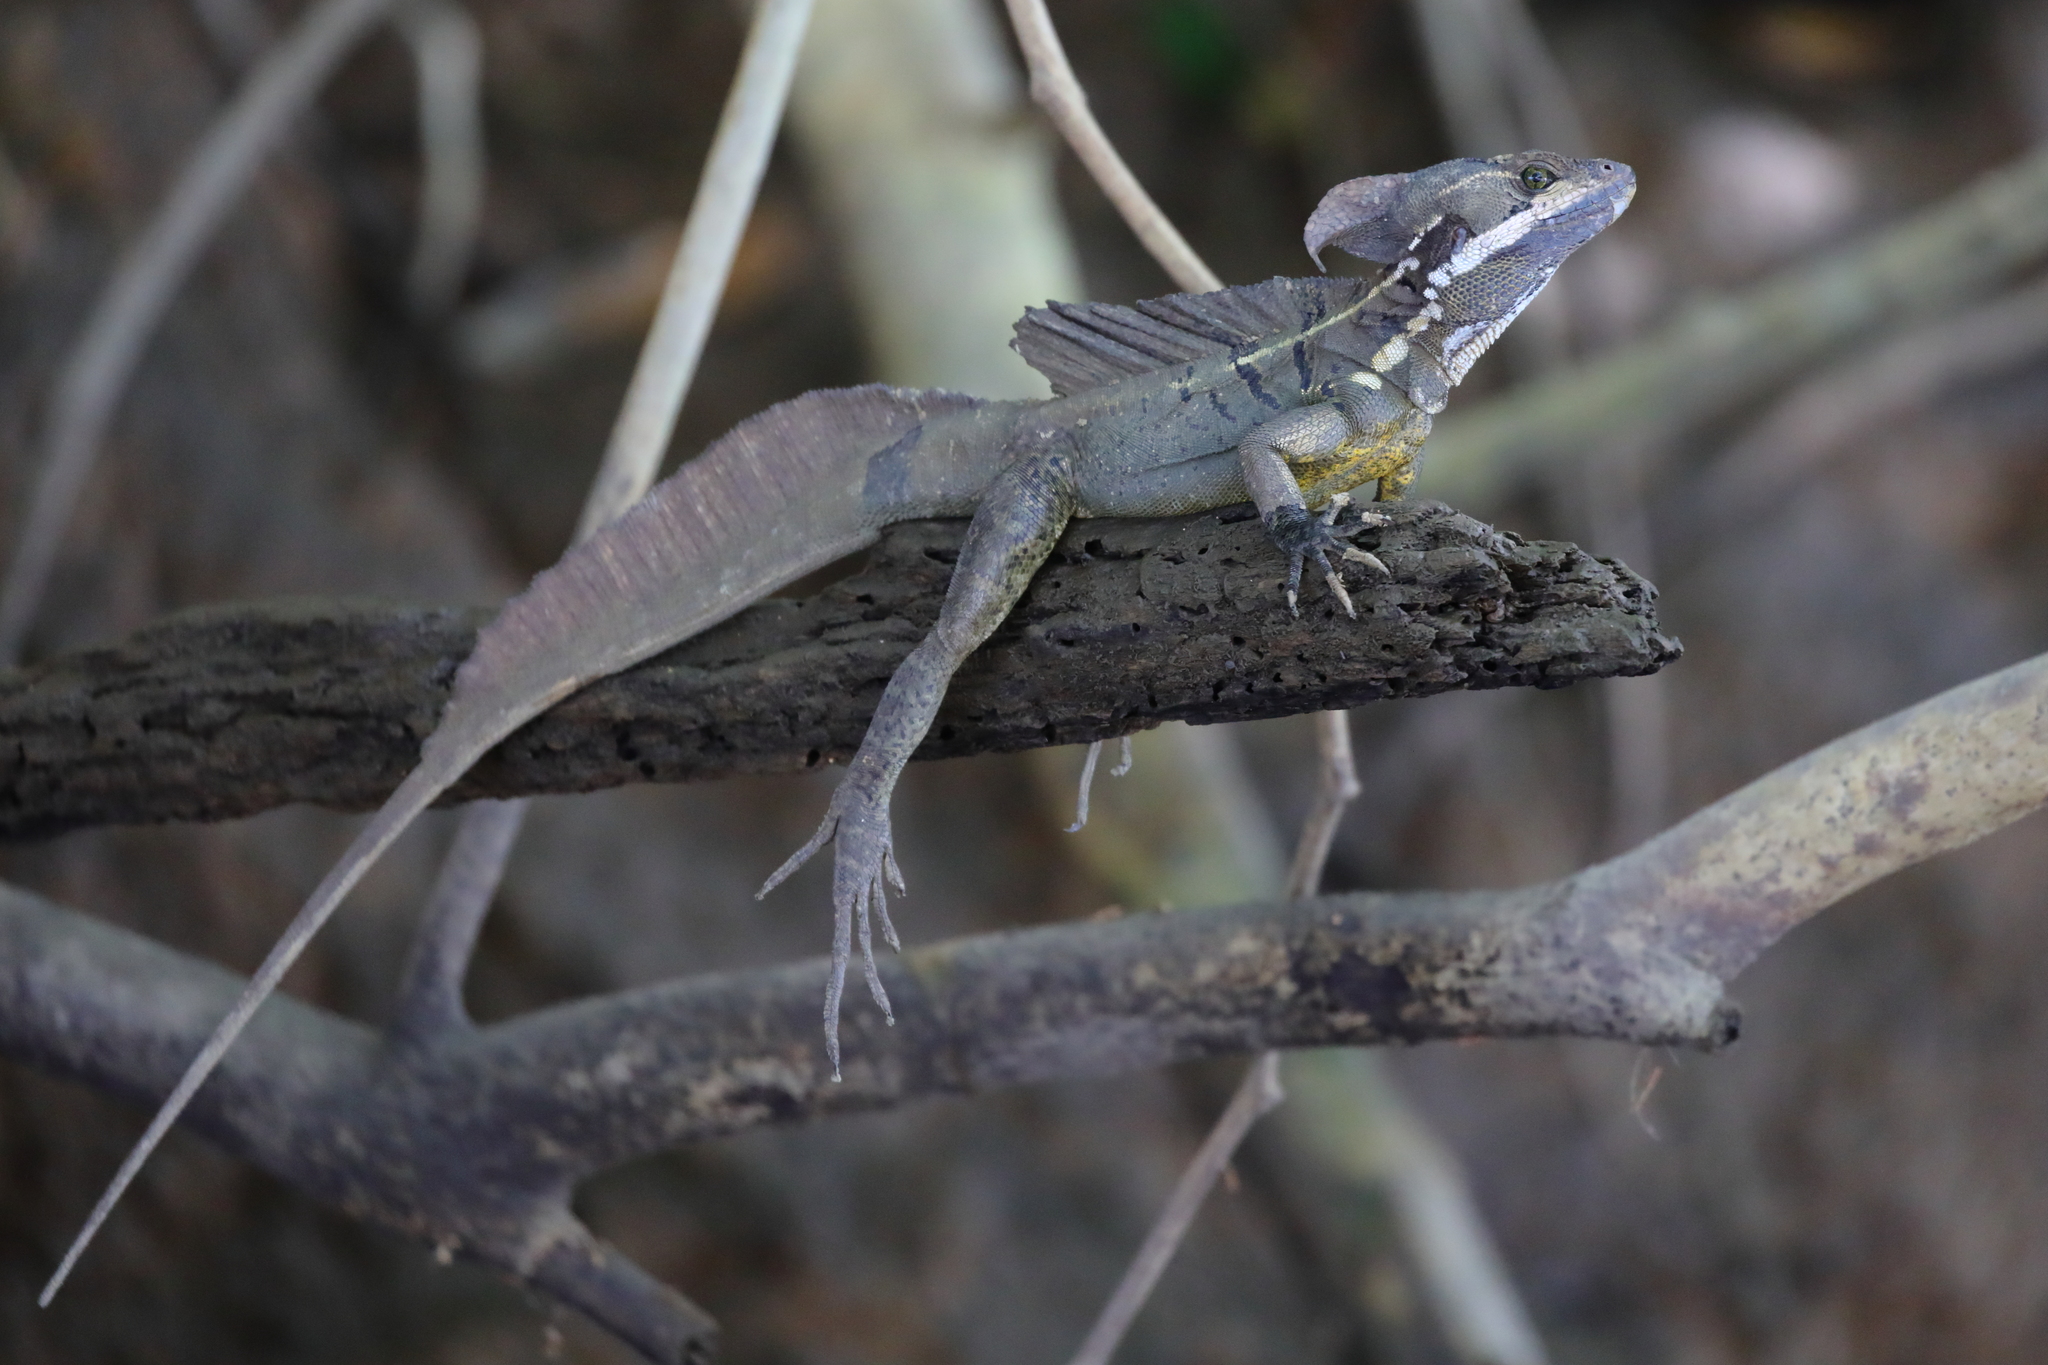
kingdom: Animalia
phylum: Chordata
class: Squamata
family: Corytophanidae
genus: Basiliscus
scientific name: Basiliscus basiliscus
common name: Common basilisk
